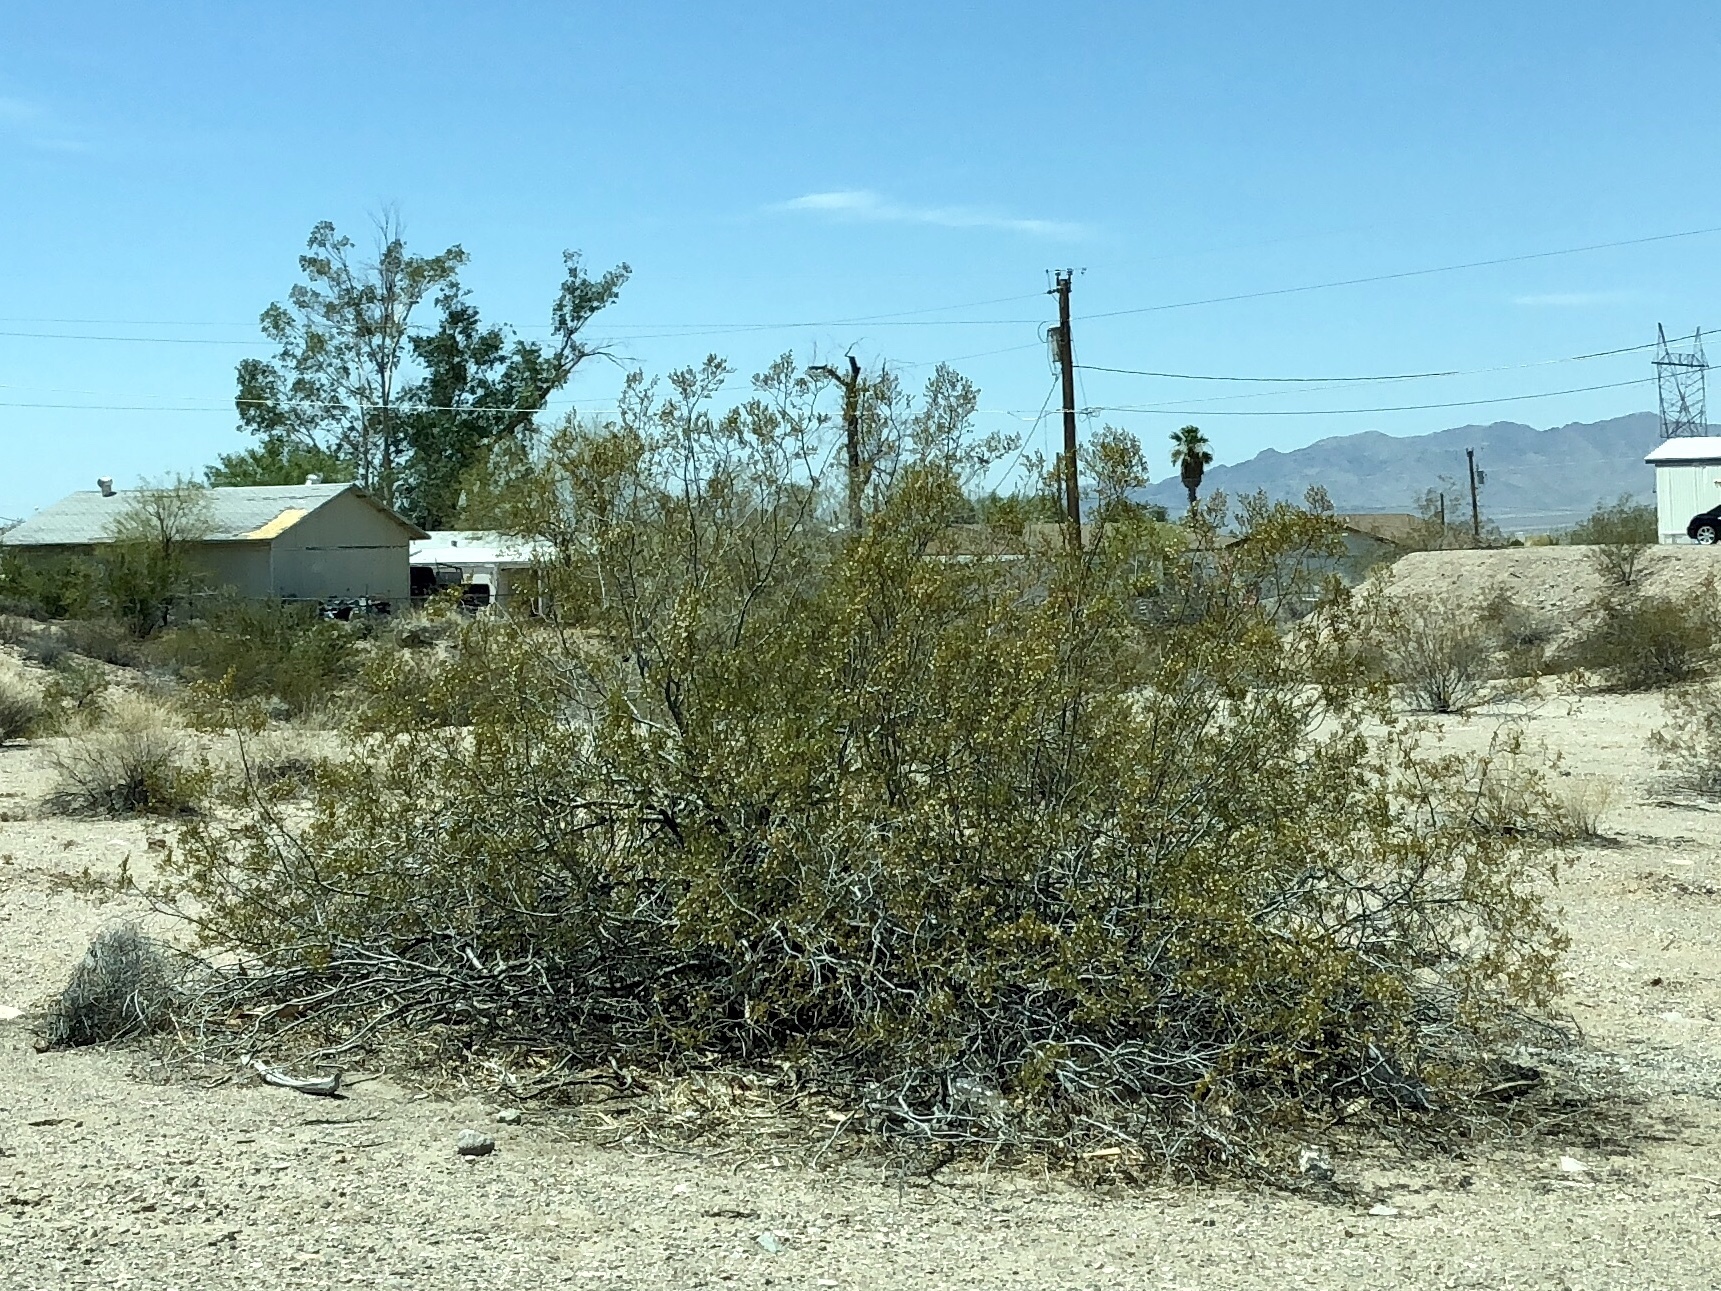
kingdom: Plantae
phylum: Tracheophyta
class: Magnoliopsida
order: Zygophyllales
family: Zygophyllaceae
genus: Larrea
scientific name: Larrea tridentata
